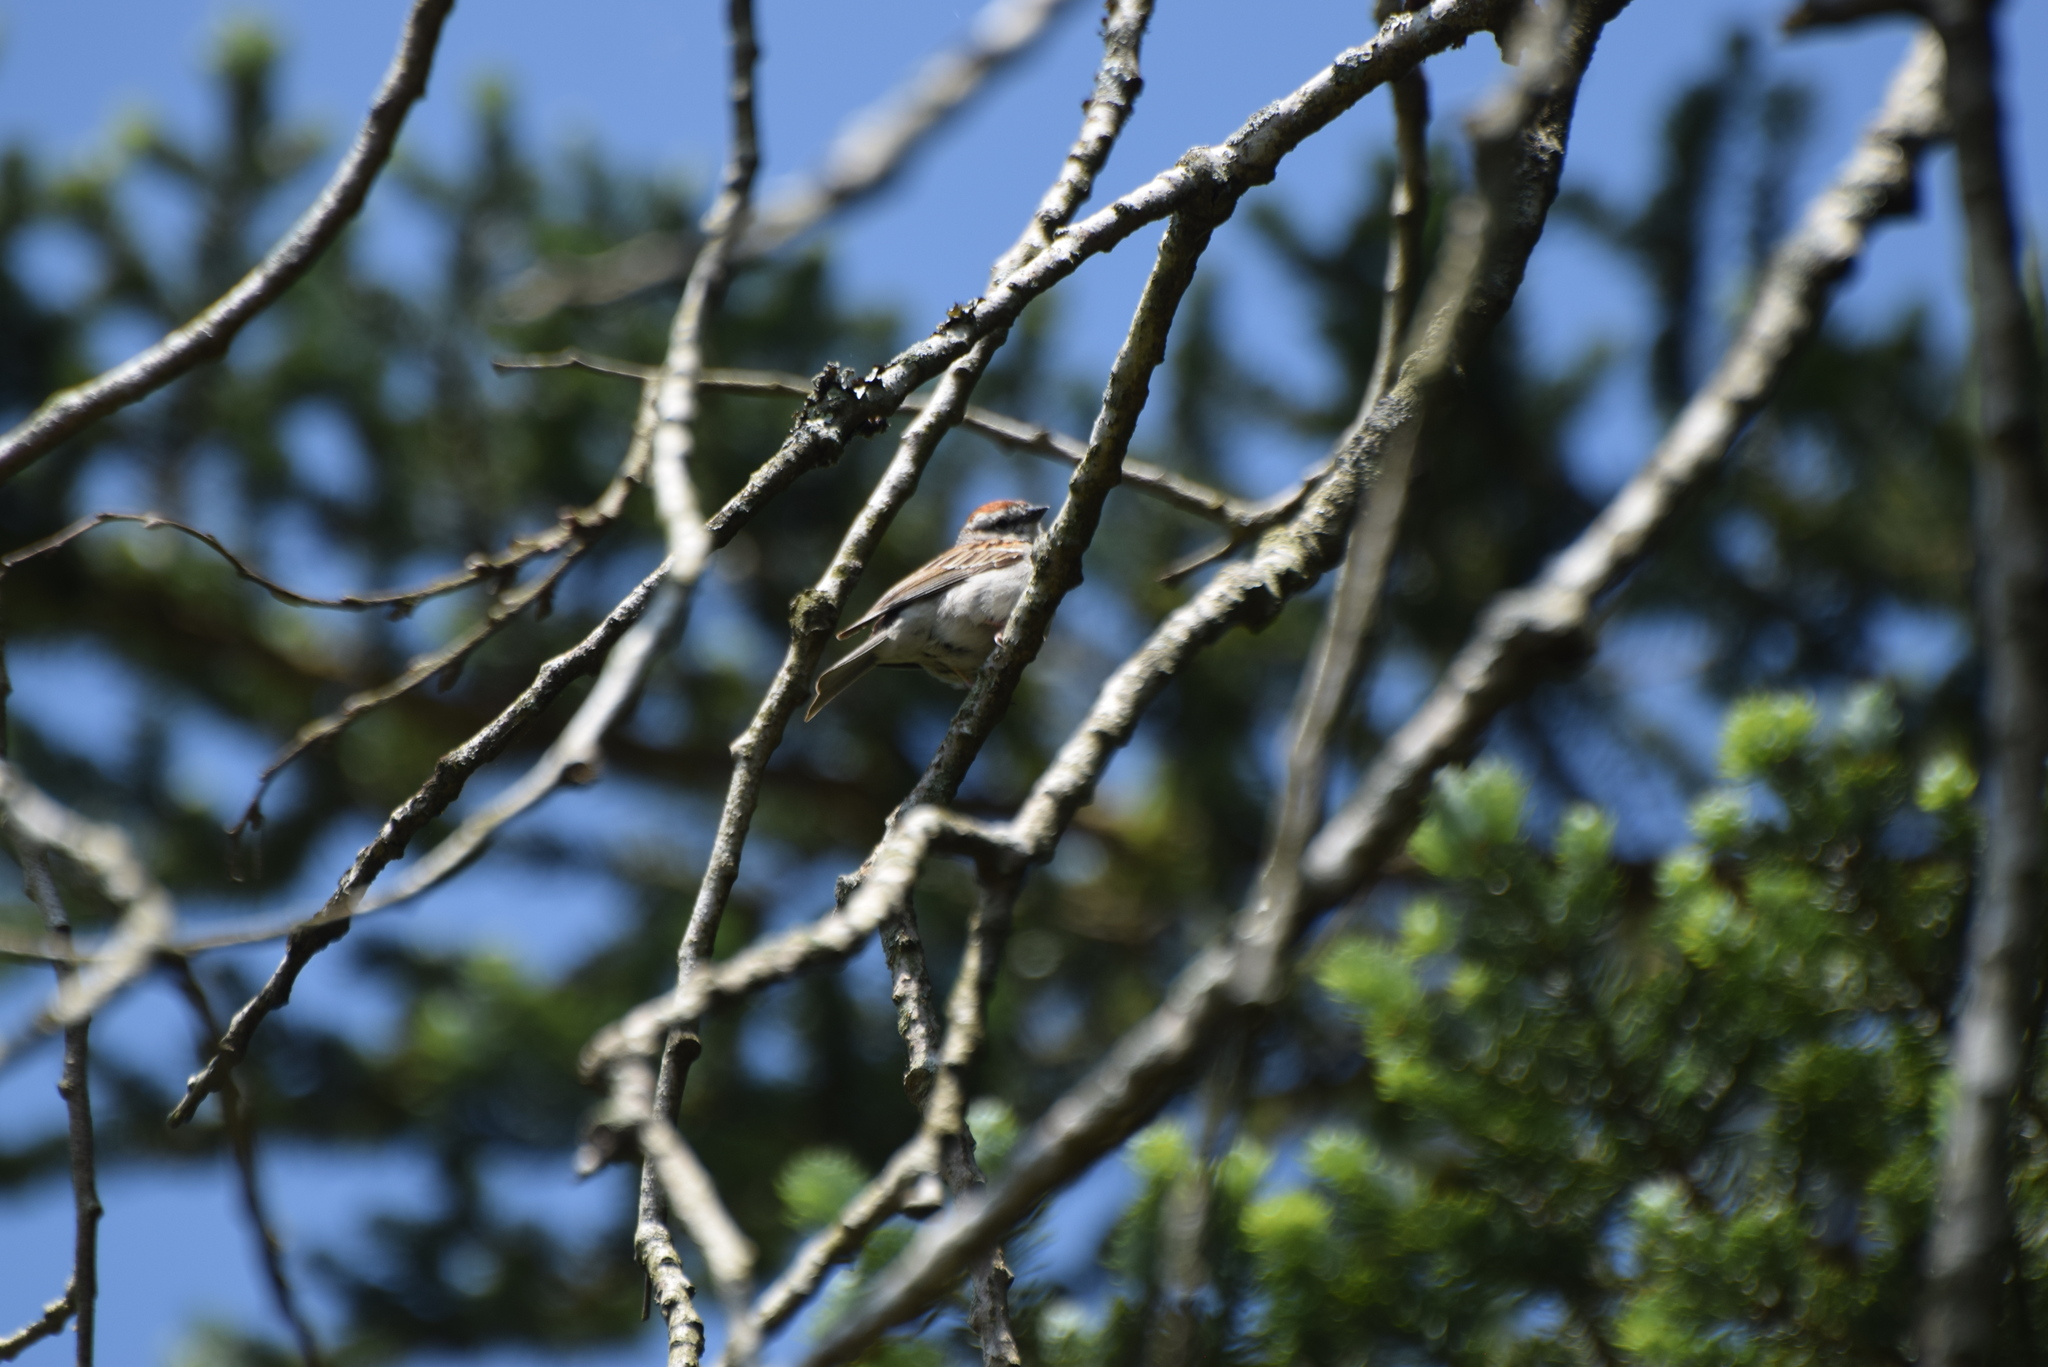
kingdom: Animalia
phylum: Chordata
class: Aves
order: Passeriformes
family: Passerellidae
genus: Spizella
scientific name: Spizella passerina
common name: Chipping sparrow
